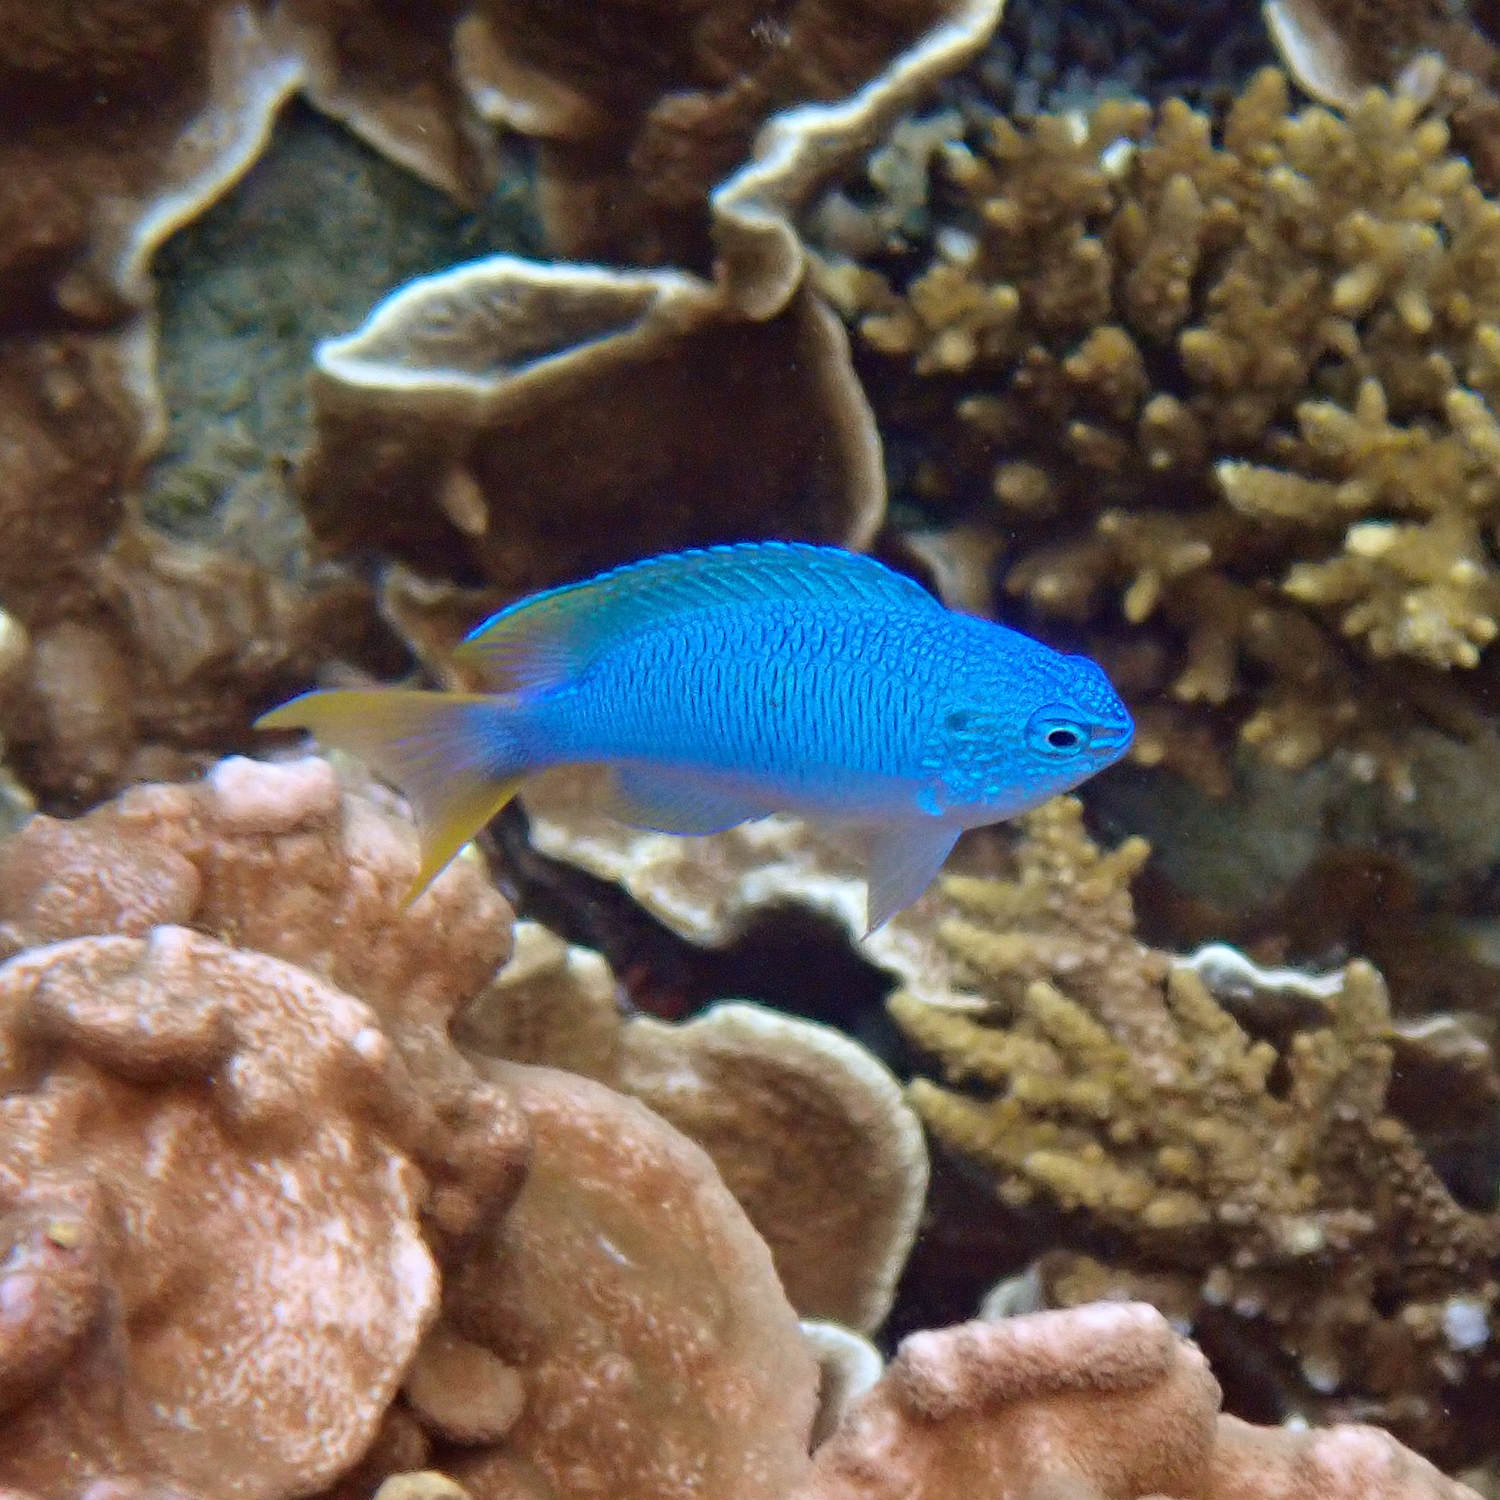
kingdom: Animalia
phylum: Chordata
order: Perciformes
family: Pomacentridae
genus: Pomacentrus
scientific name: Pomacentrus pavo
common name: Sapphire damsel
